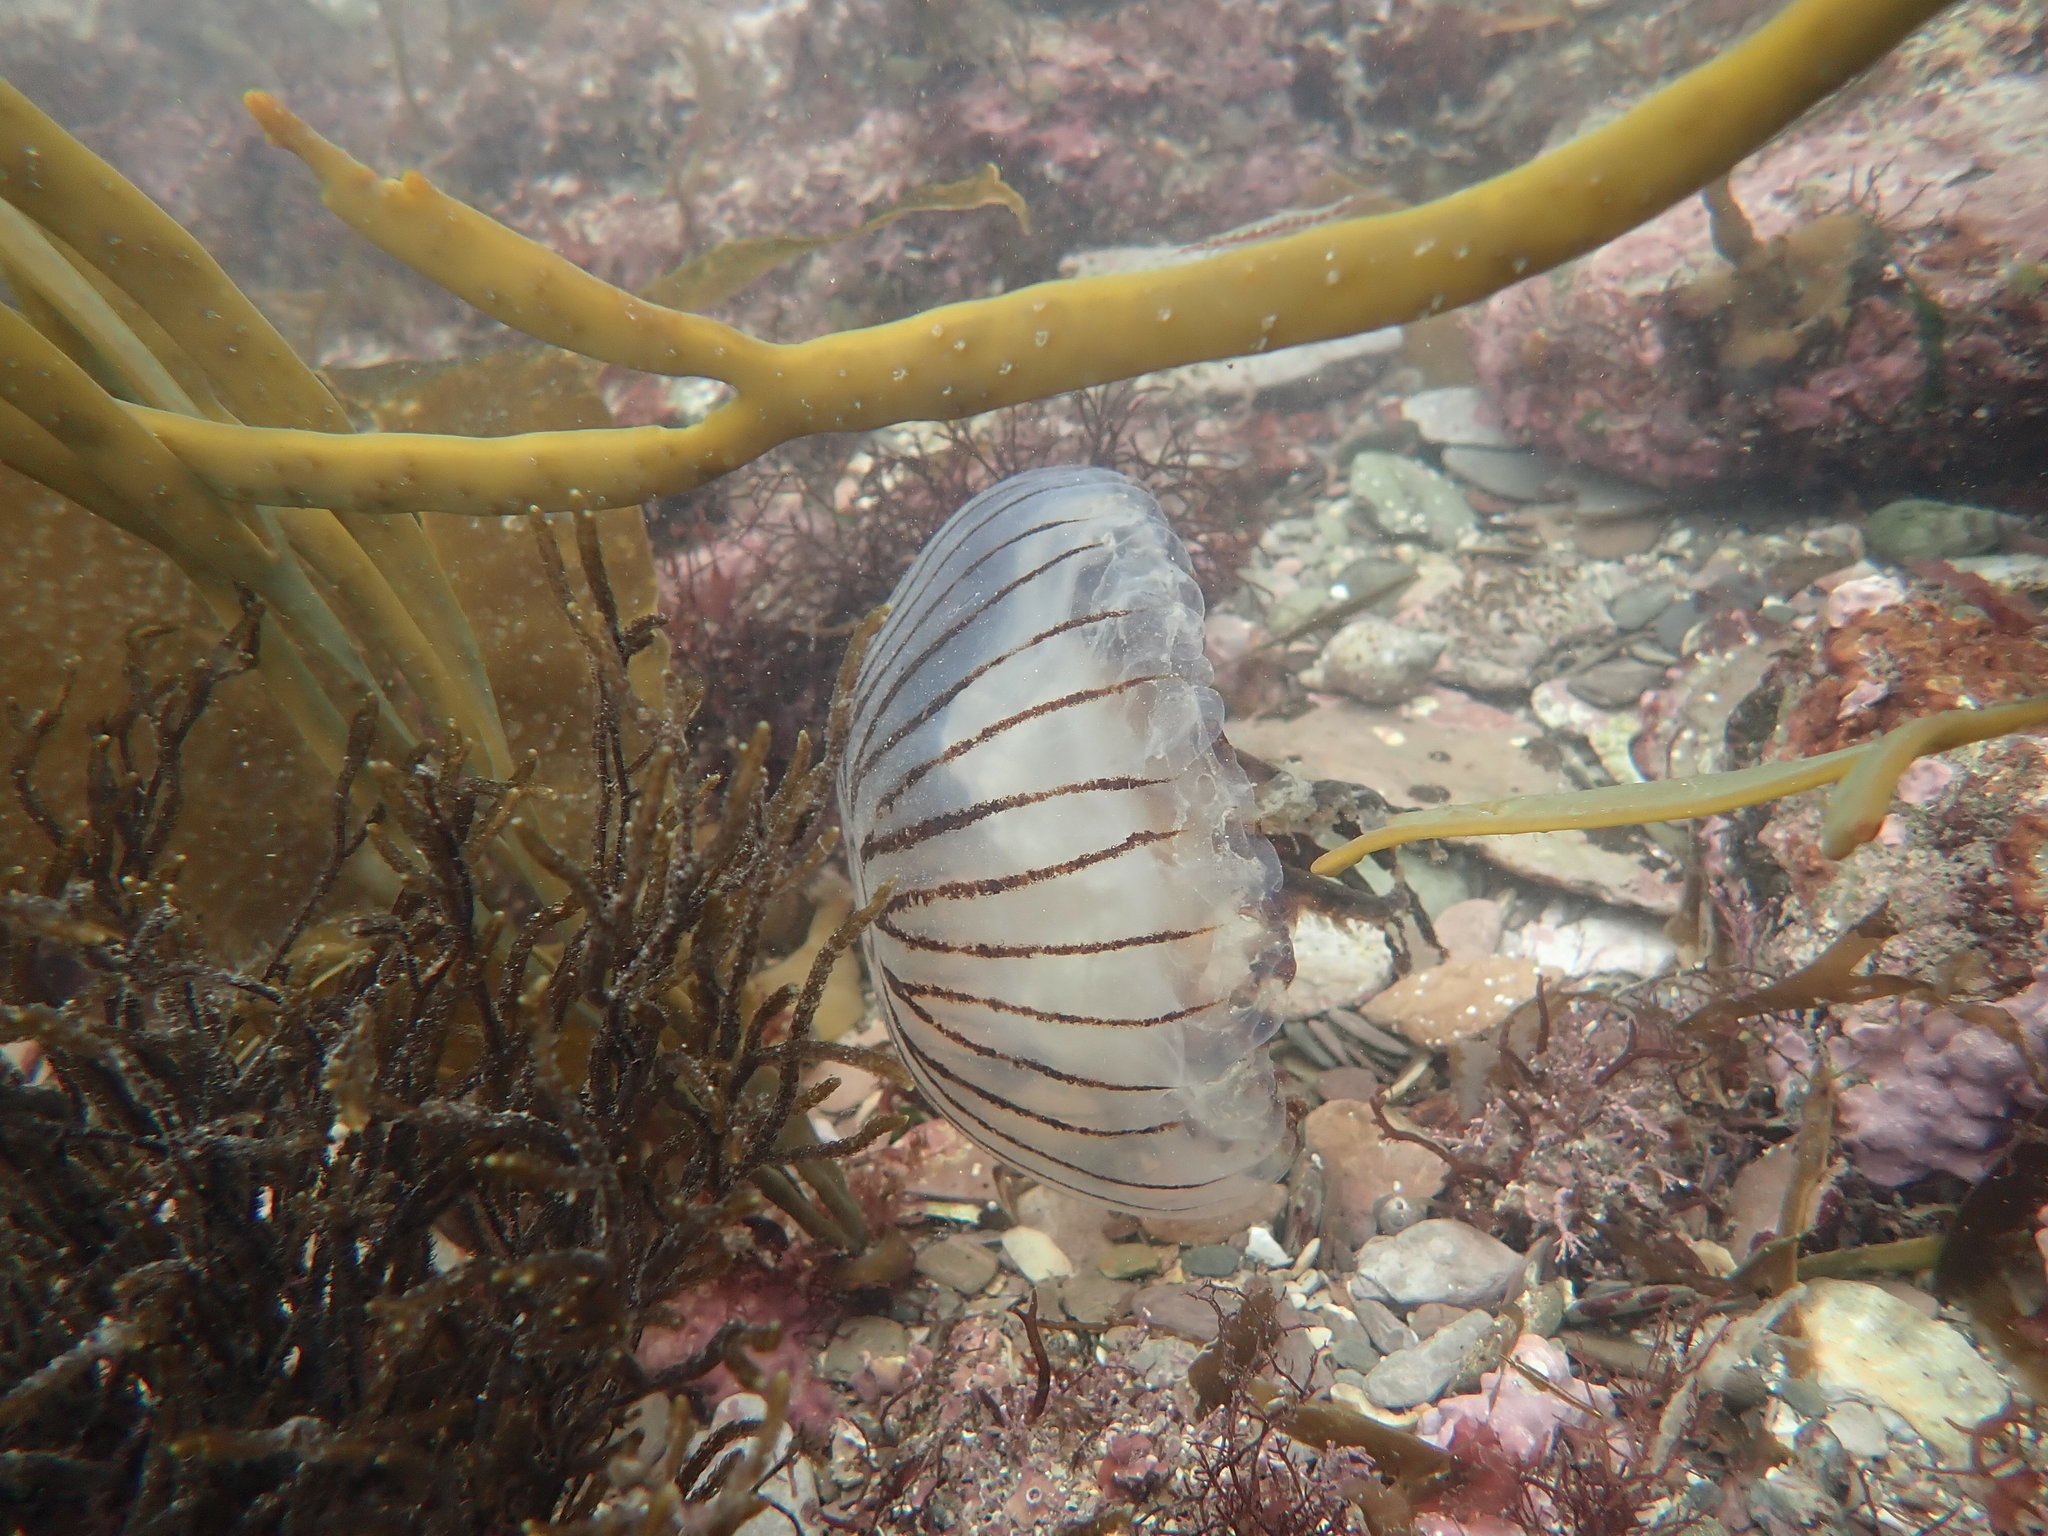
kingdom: Animalia
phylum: Cnidaria
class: Scyphozoa
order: Semaeostomeae
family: Pelagiidae
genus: Chrysaora
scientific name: Chrysaora hysoscella
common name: Compass jellyfish
